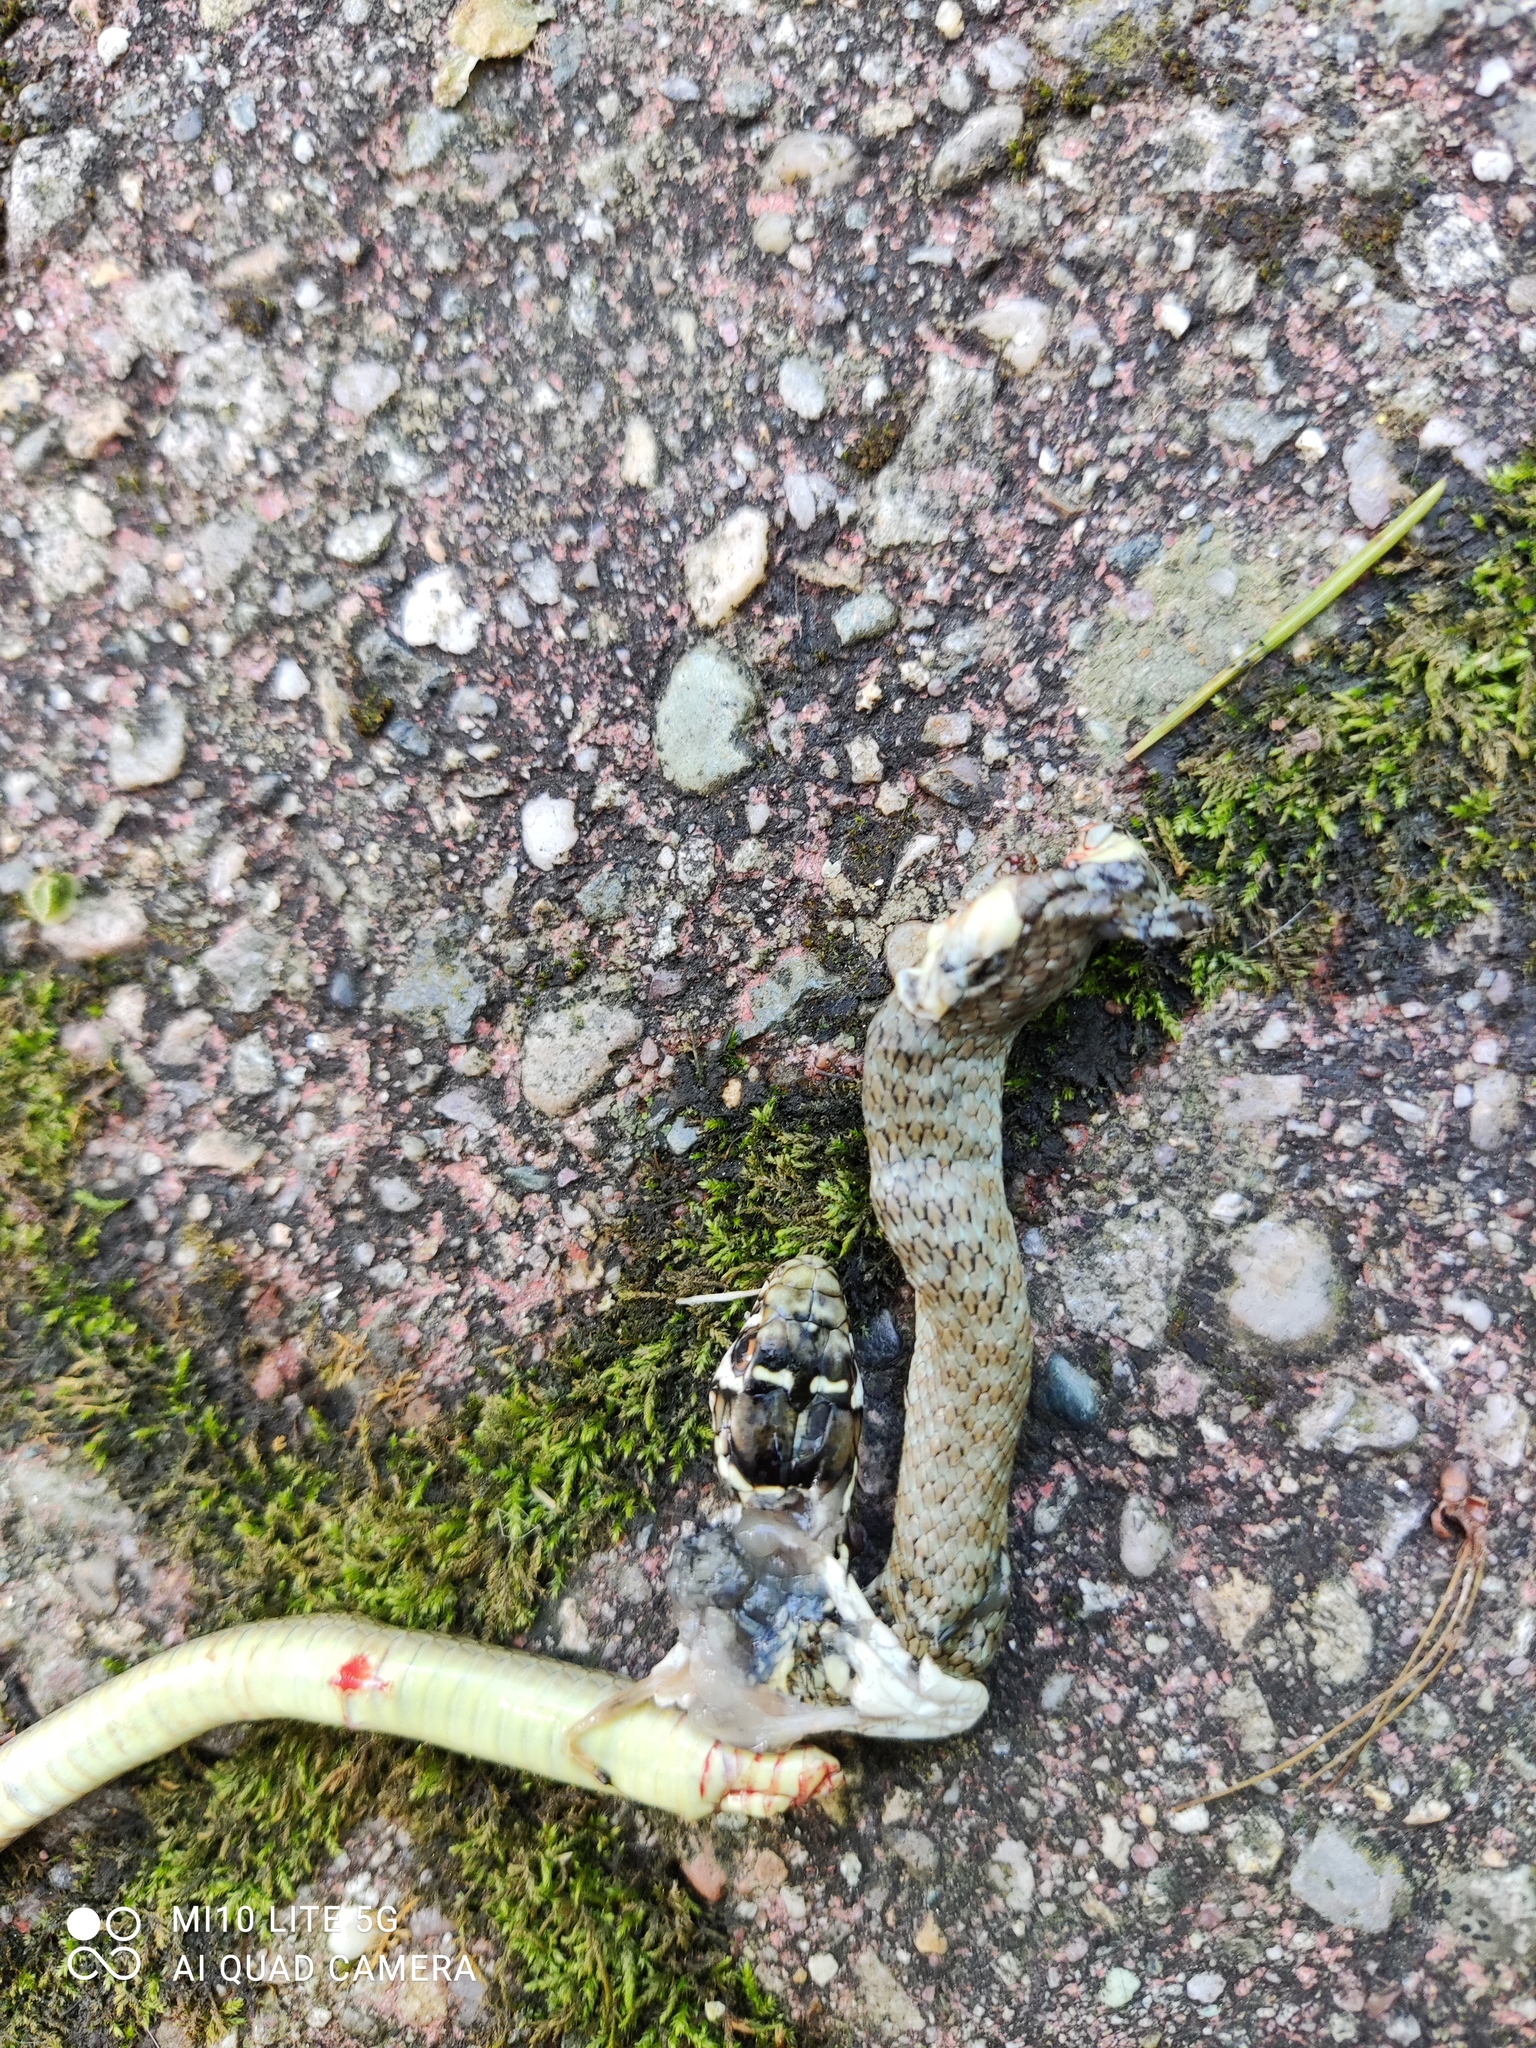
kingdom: Animalia
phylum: Chordata
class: Squamata
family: Colubridae
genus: Hierophis
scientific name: Hierophis viridiflavus
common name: Green whip snake
